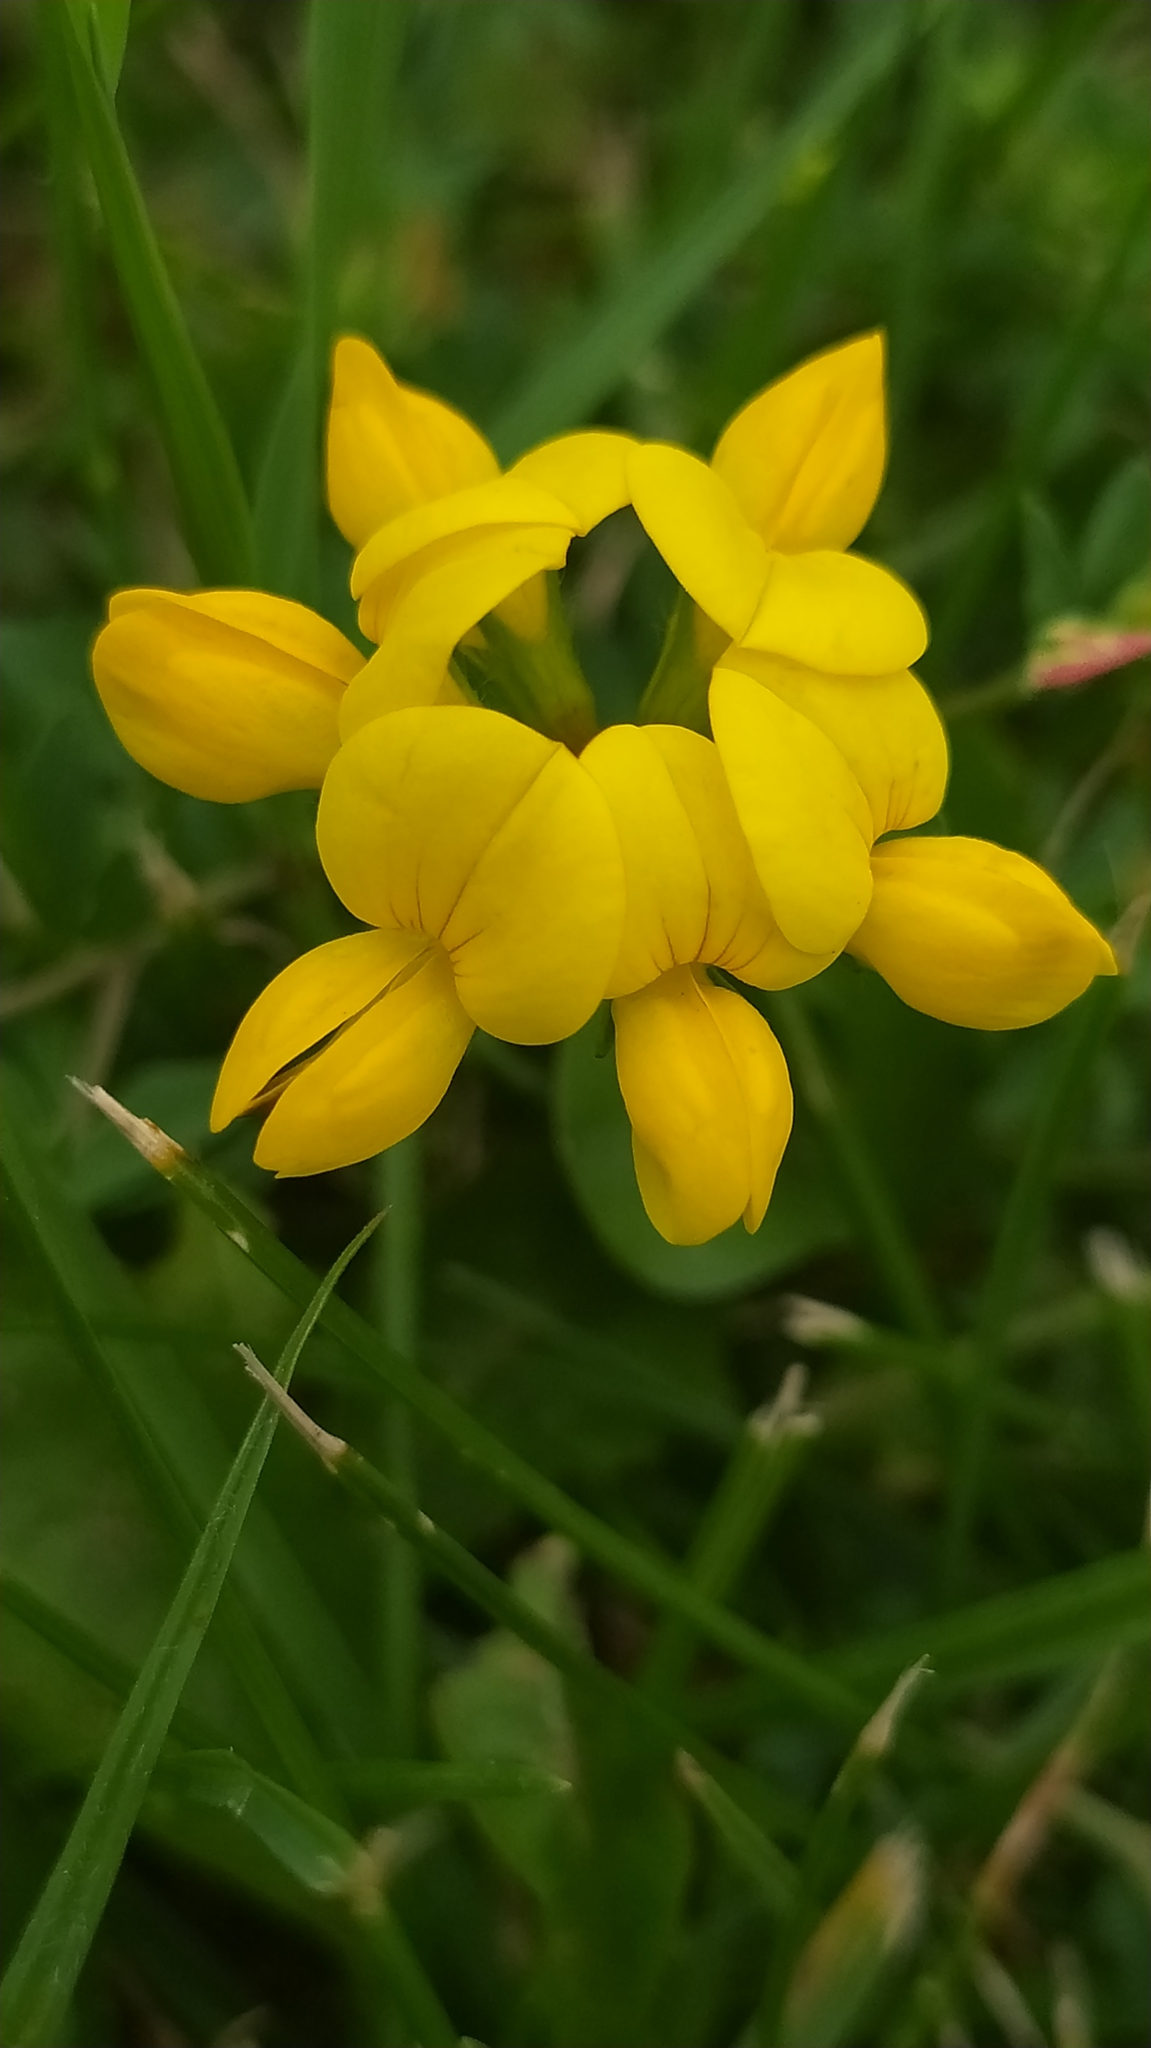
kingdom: Plantae
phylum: Tracheophyta
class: Magnoliopsida
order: Fabales
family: Fabaceae
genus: Lotus
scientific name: Lotus corniculatus
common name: Common bird's-foot-trefoil
